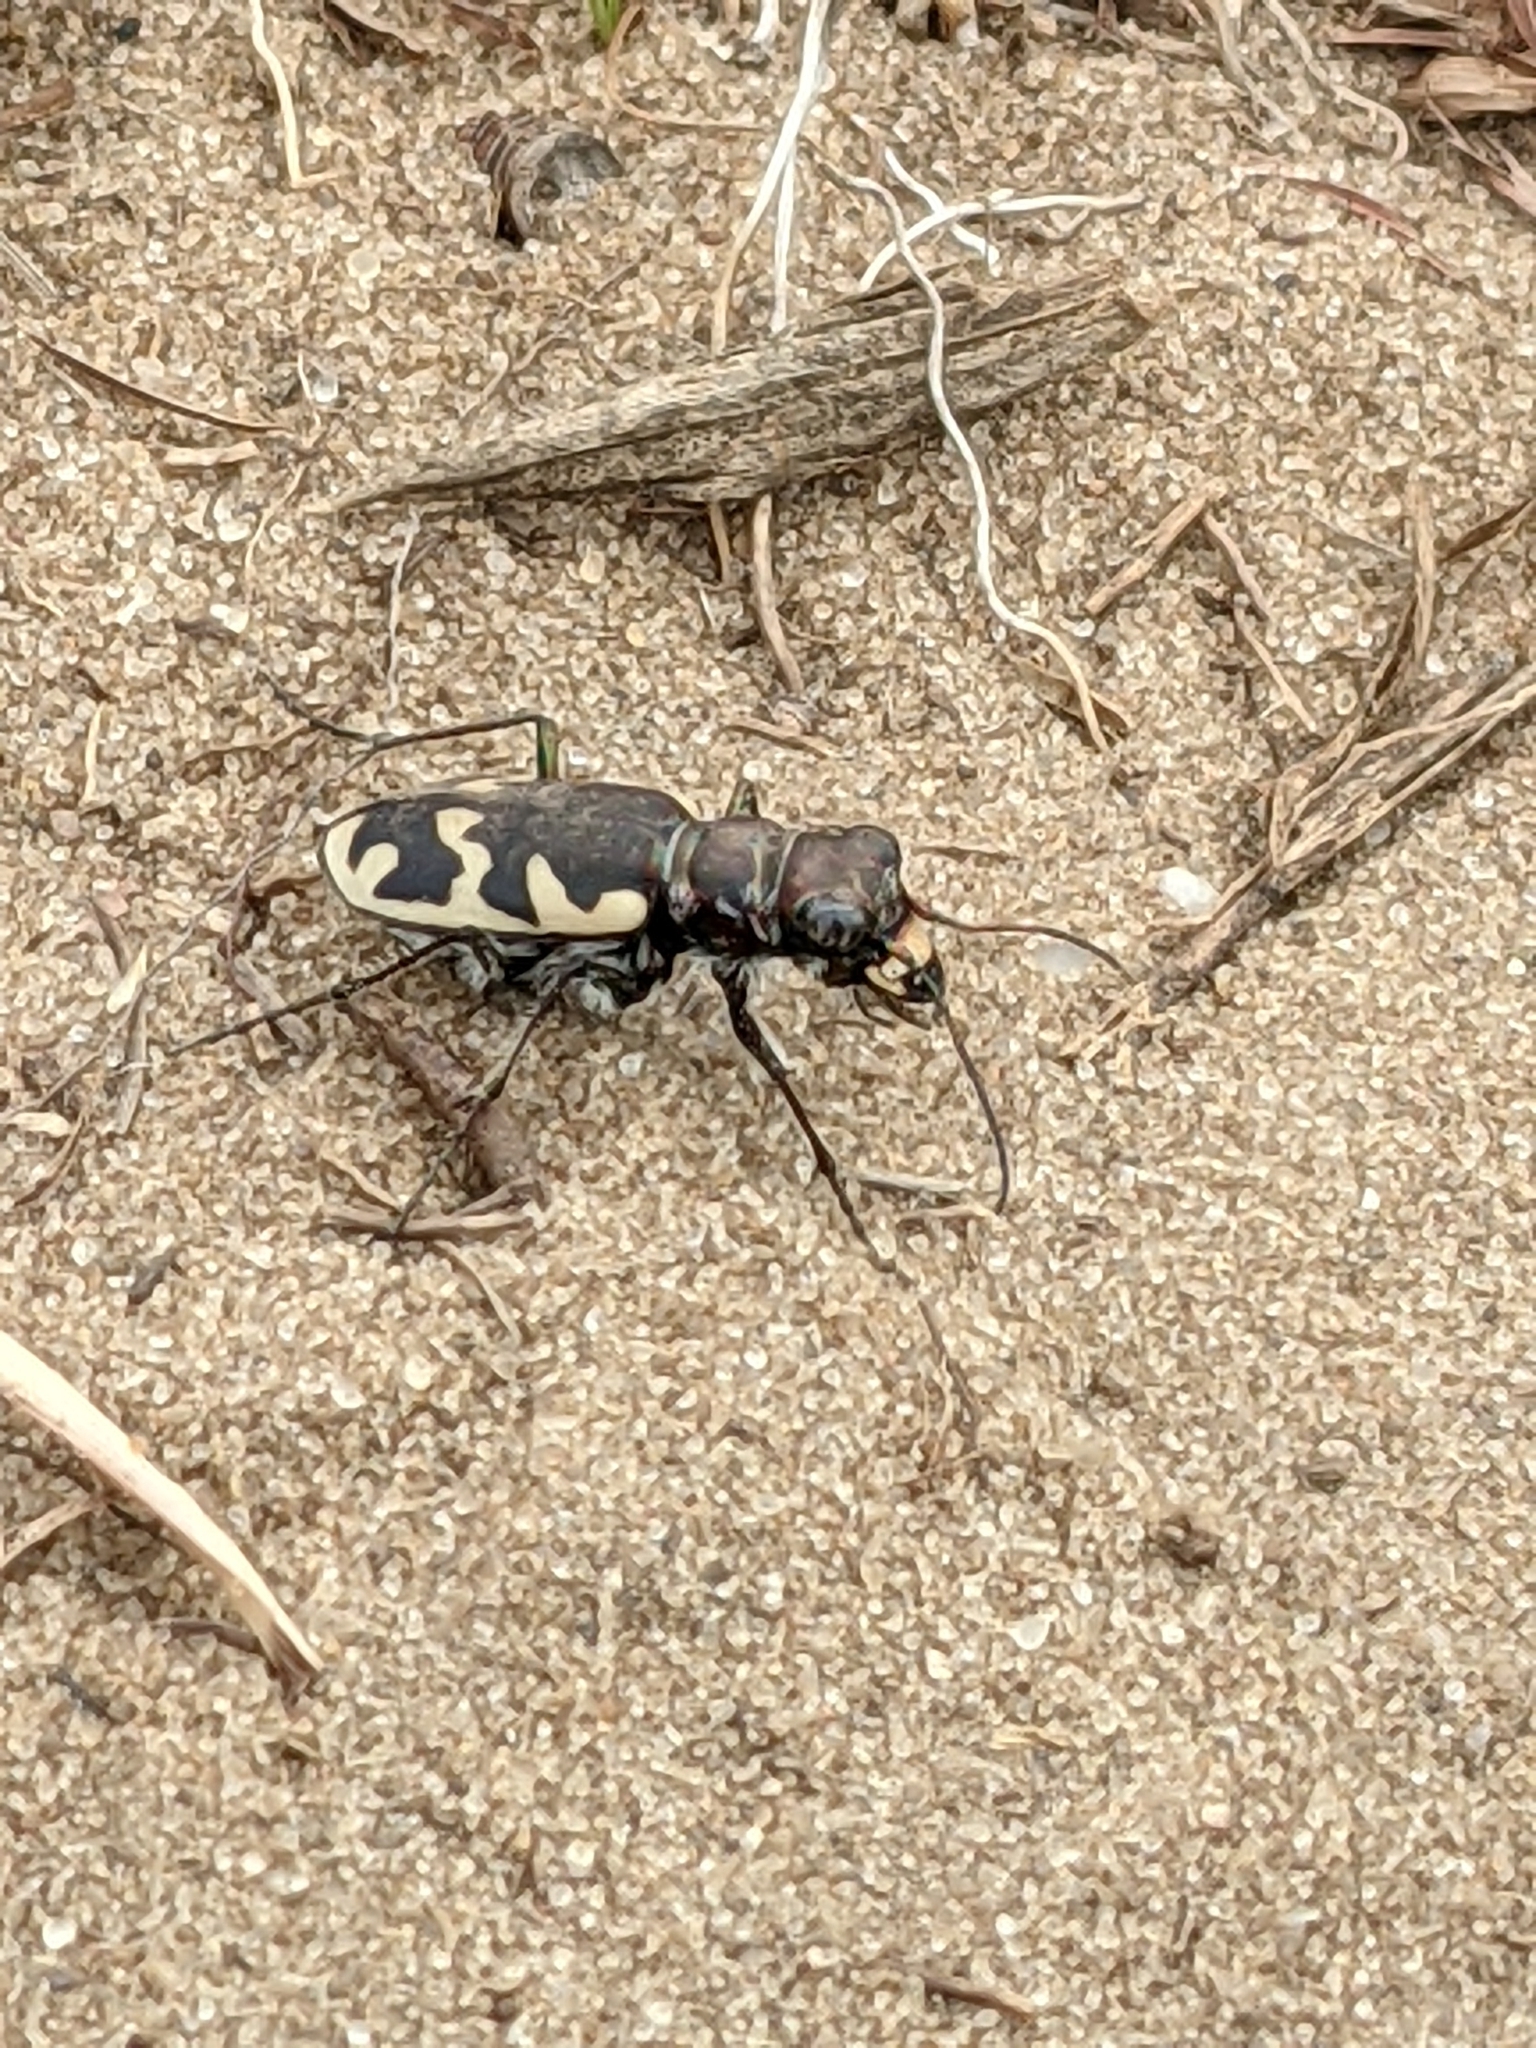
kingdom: Animalia
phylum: Arthropoda
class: Insecta
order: Coleoptera
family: Carabidae
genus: Cicindela
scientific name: Cicindela formosa
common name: Big sand tiger beetle
